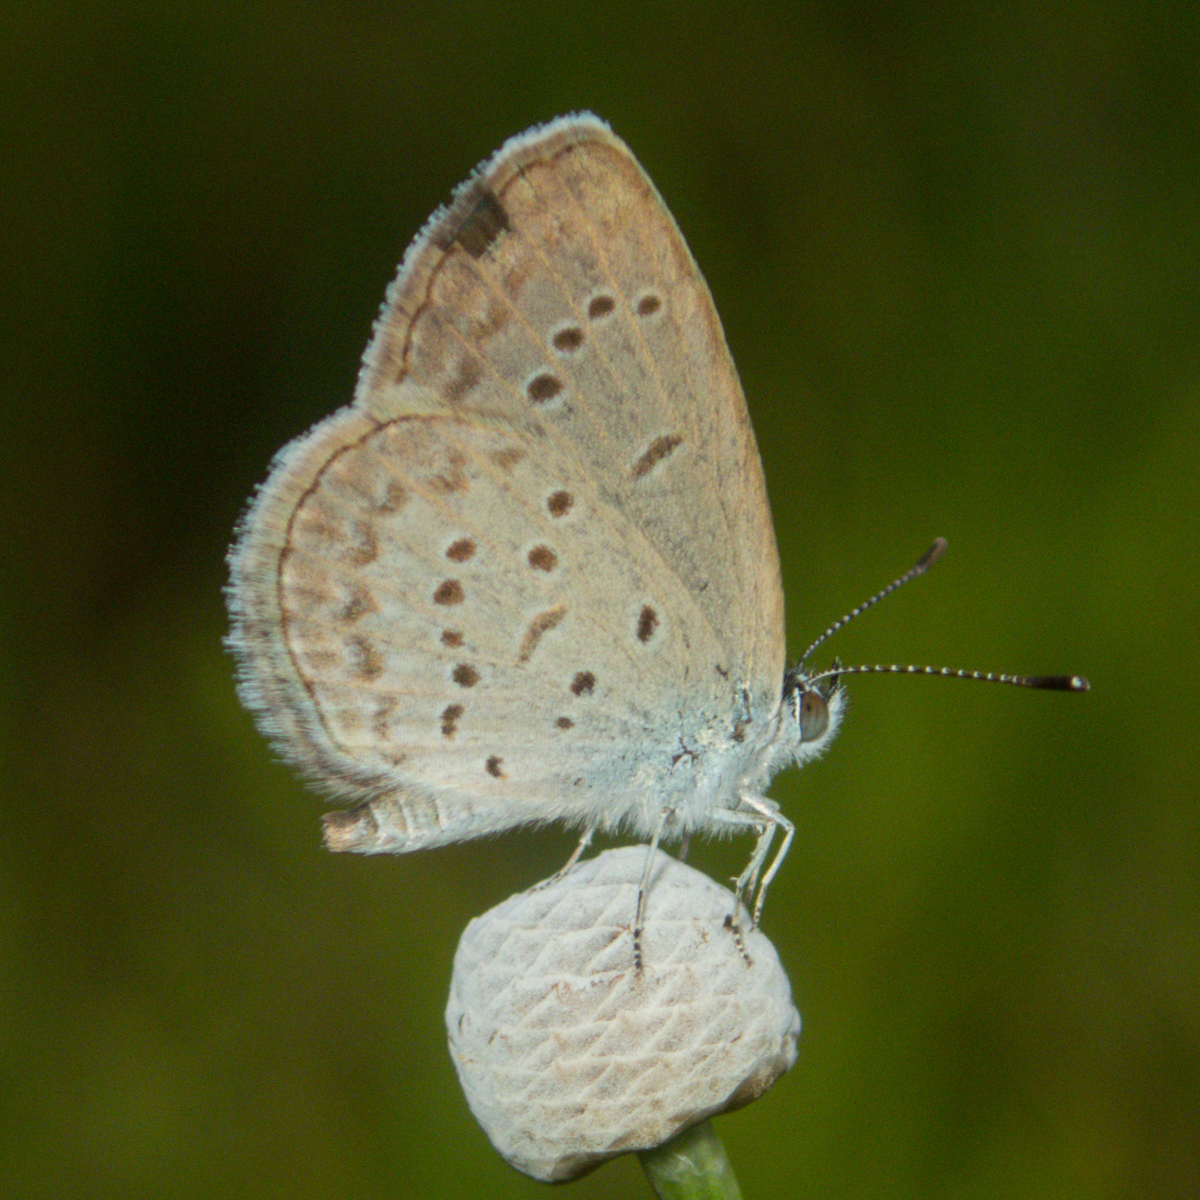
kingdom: Animalia
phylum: Arthropoda
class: Insecta
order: Lepidoptera
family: Lycaenidae
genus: Zizina
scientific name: Zizina otis
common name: Lesser grass blue
